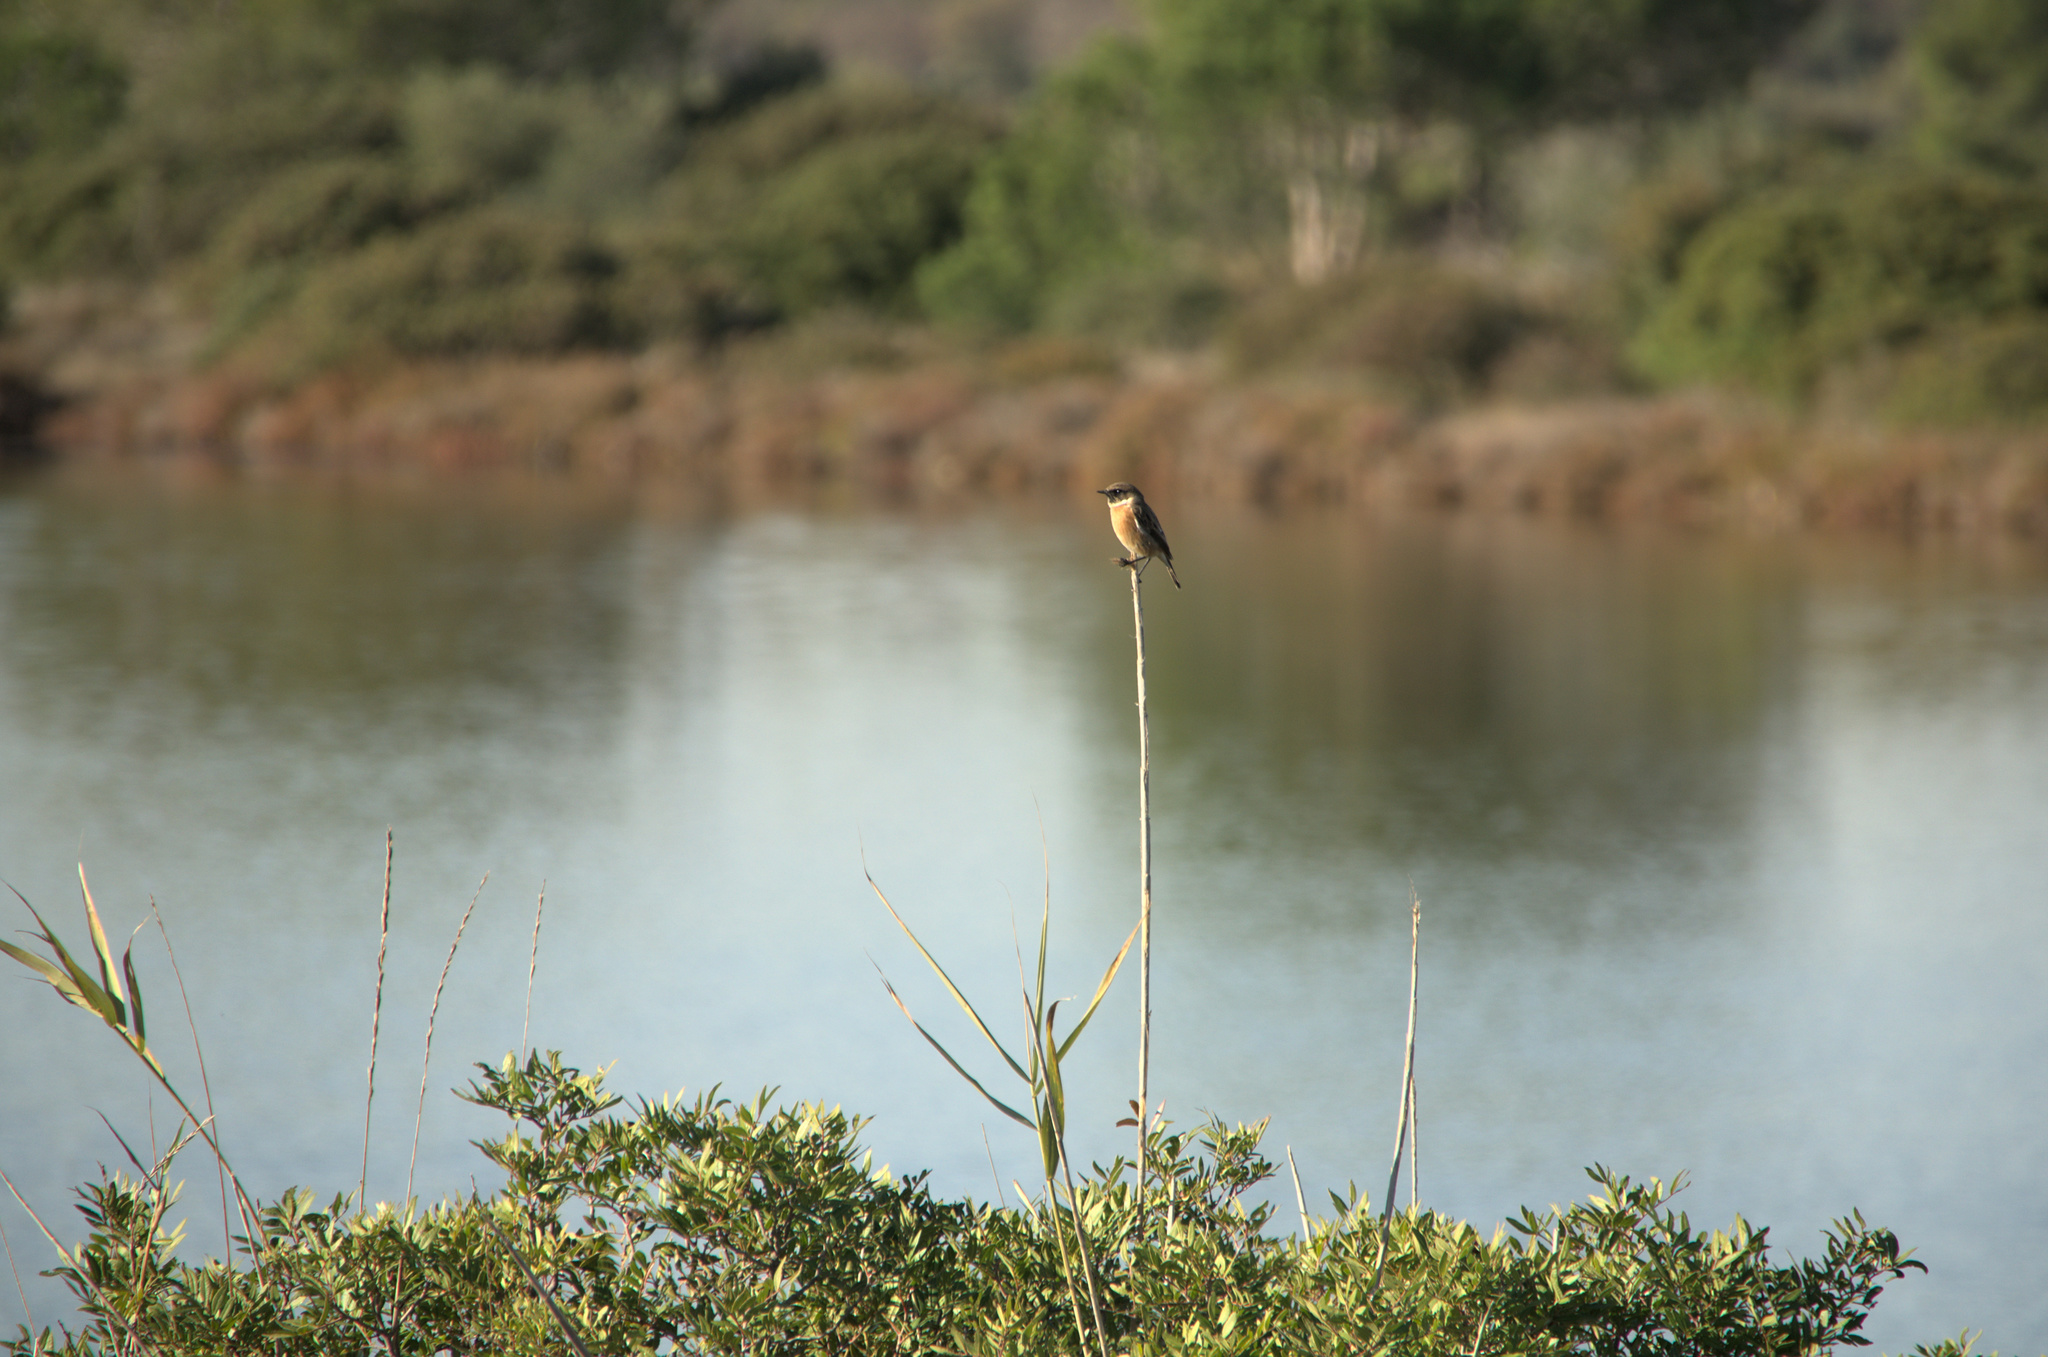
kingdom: Animalia
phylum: Chordata
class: Aves
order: Passeriformes
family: Muscicapidae
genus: Saxicola
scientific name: Saxicola rubicola
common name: European stonechat
